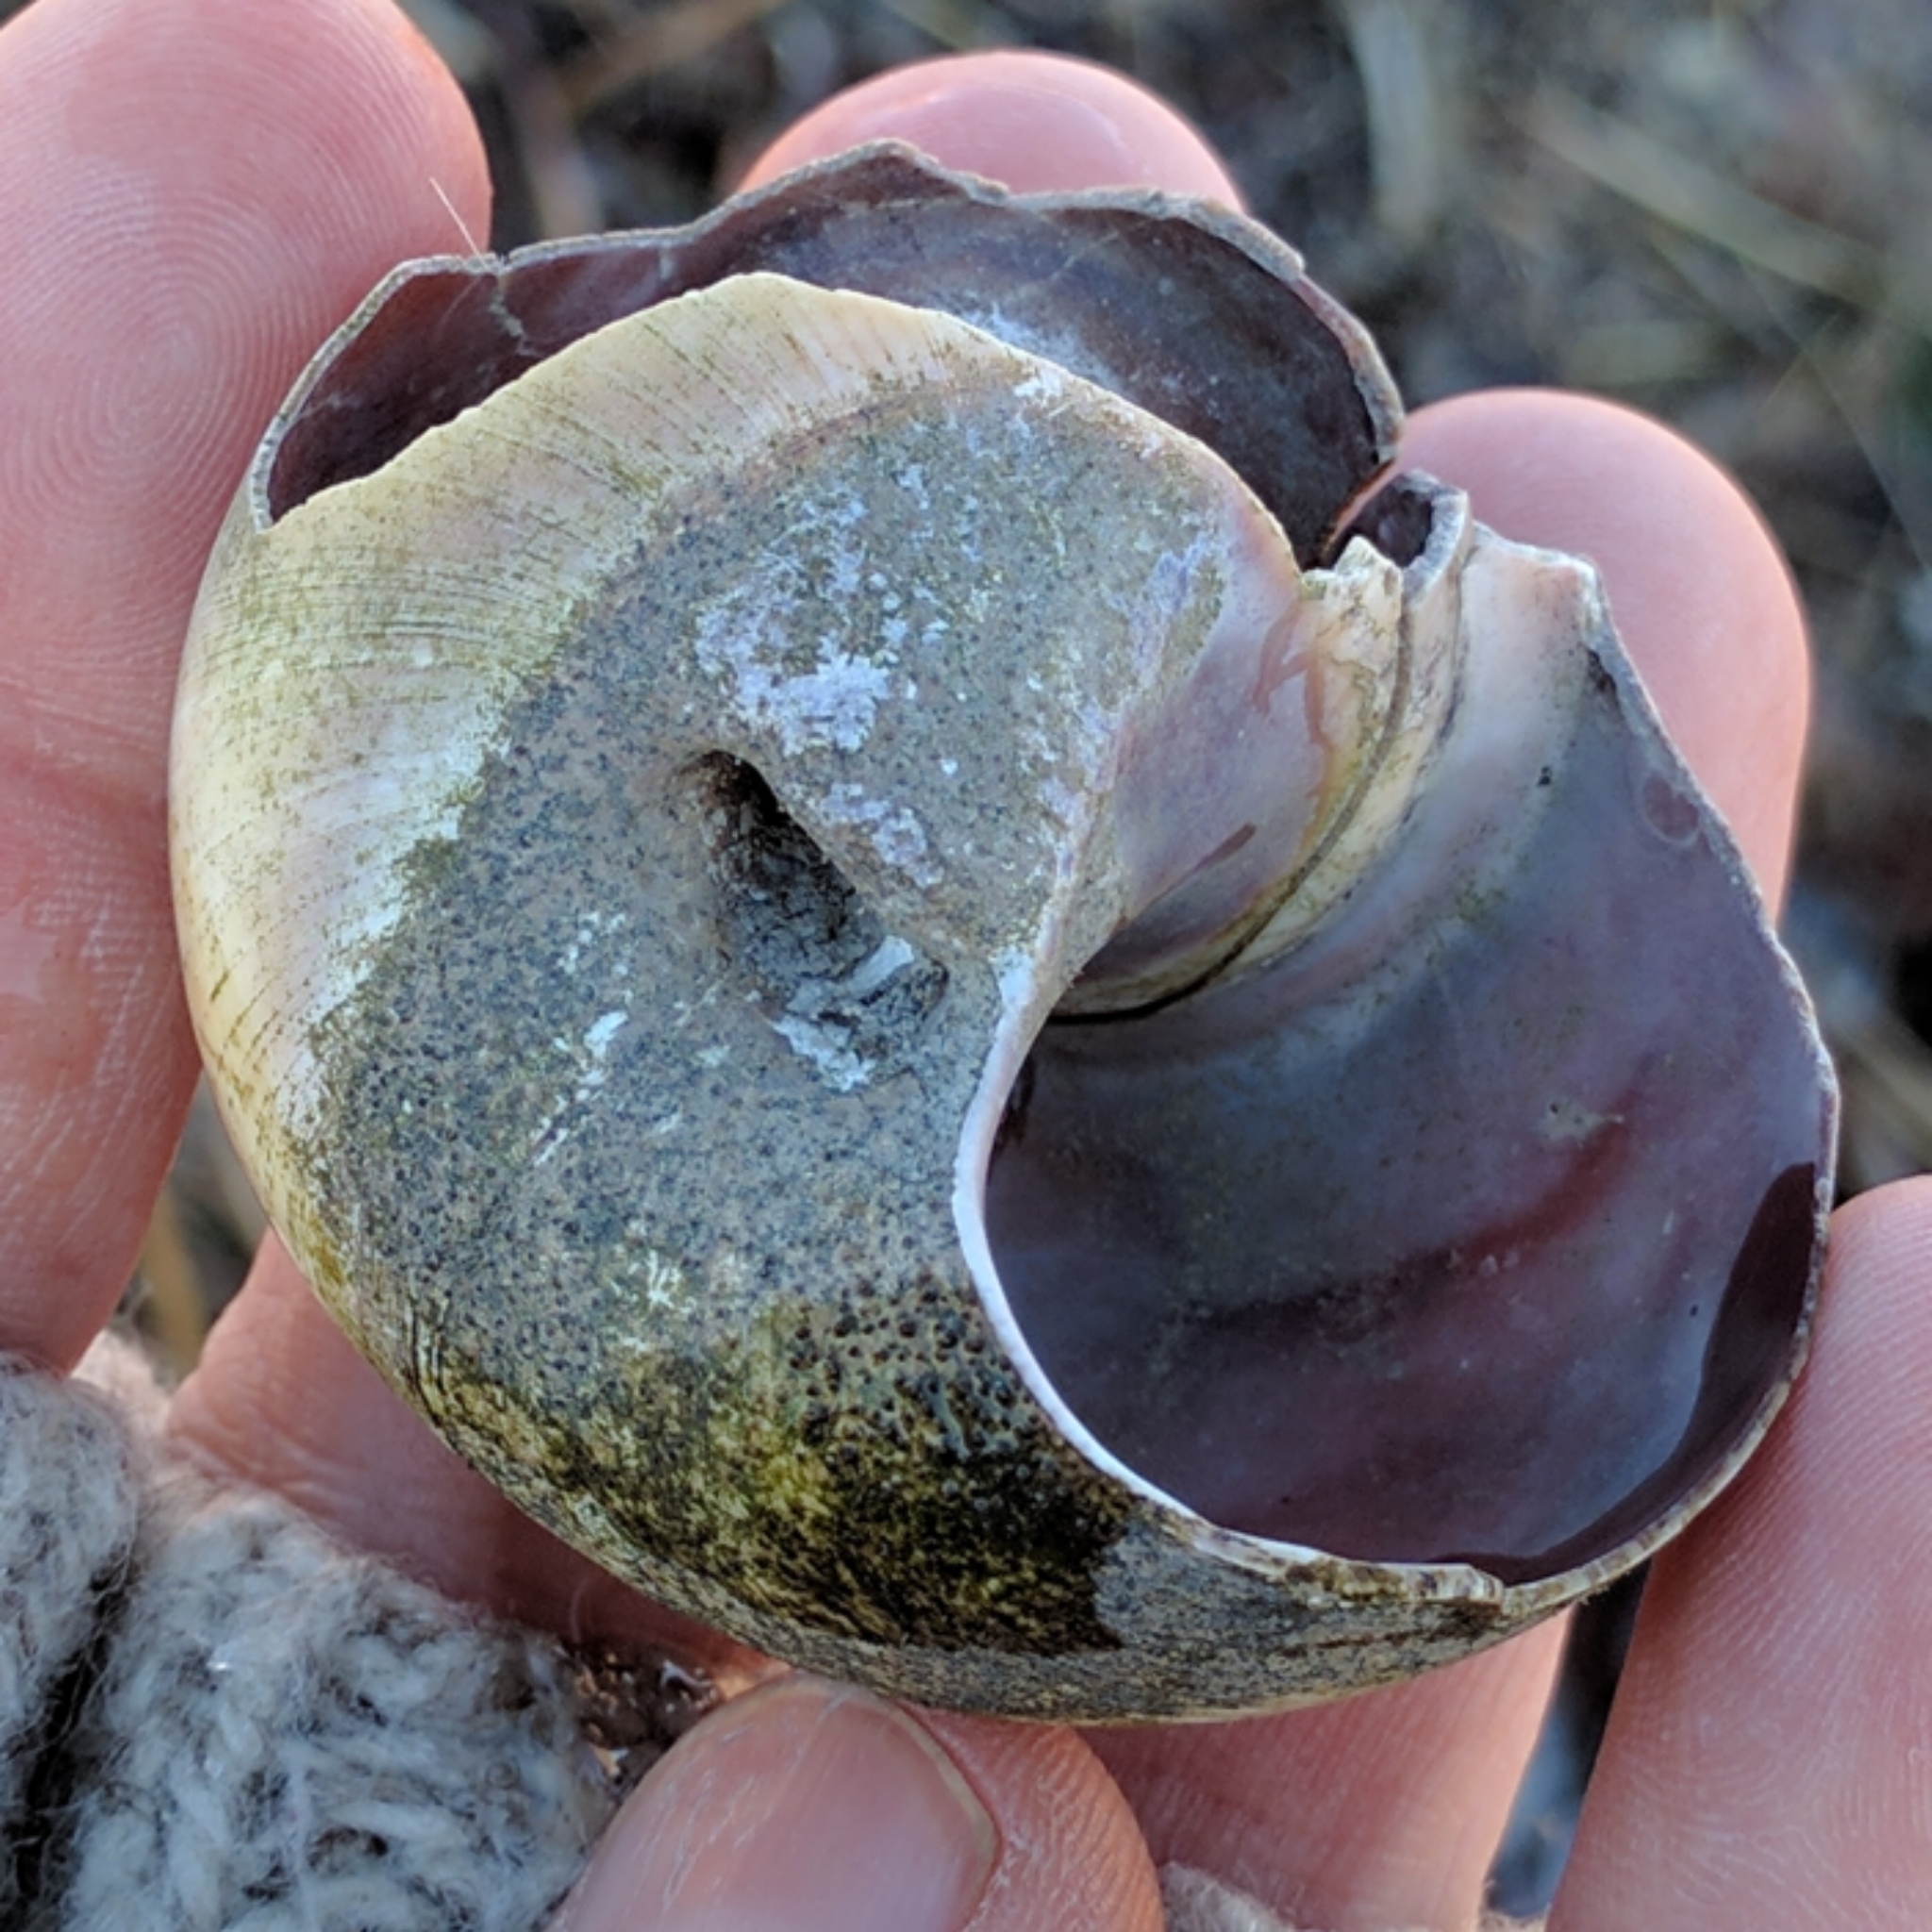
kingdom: Animalia
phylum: Mollusca
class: Gastropoda
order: Littorinimorpha
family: Naticidae
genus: Neverita
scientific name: Neverita duplicata
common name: Lobed moonsnail
